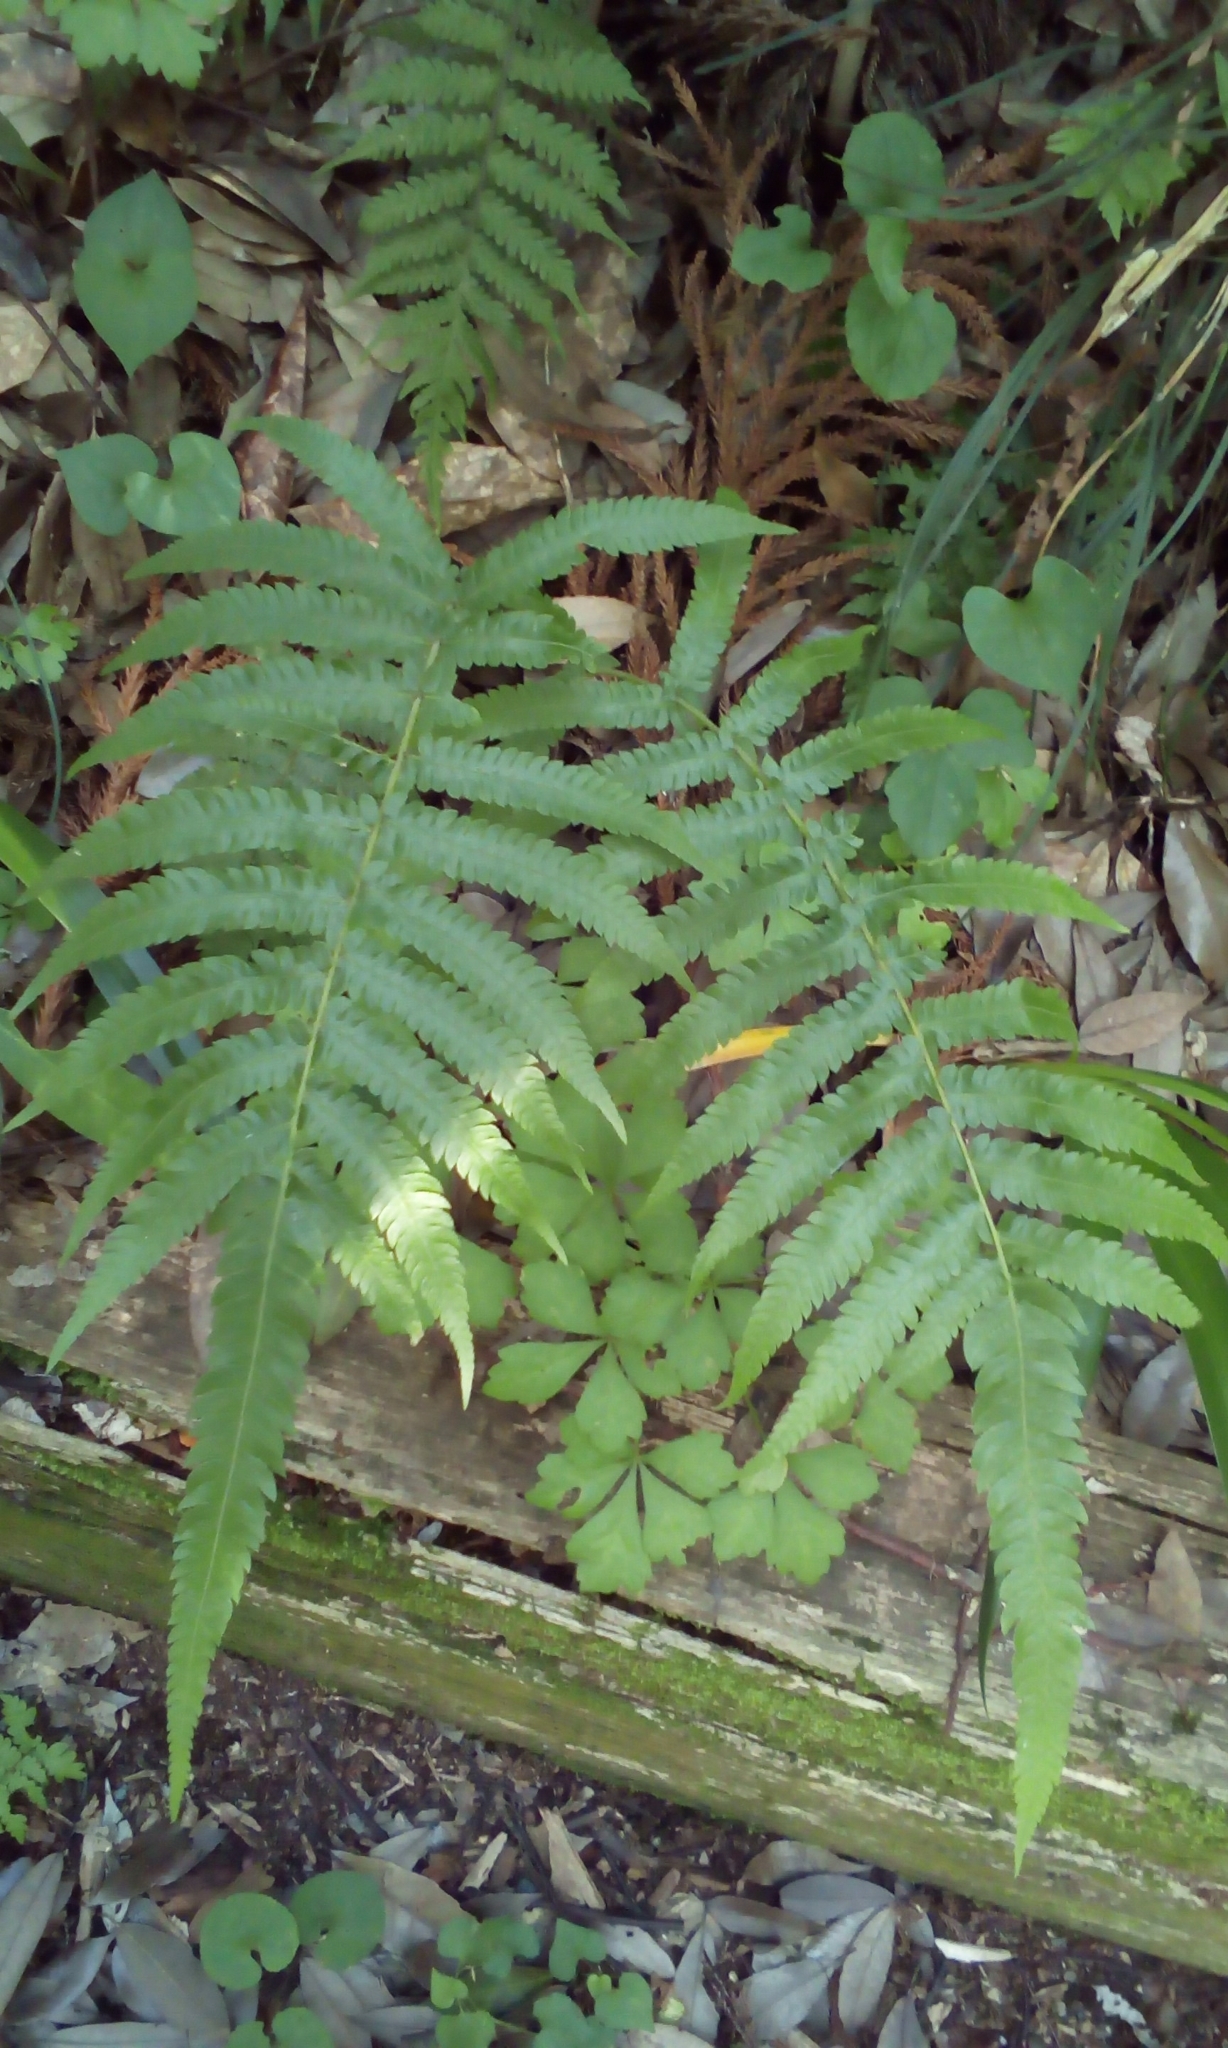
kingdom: Plantae
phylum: Tracheophyta
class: Polypodiopsida
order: Polypodiales
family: Thelypteridaceae
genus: Christella
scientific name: Christella acuminata
